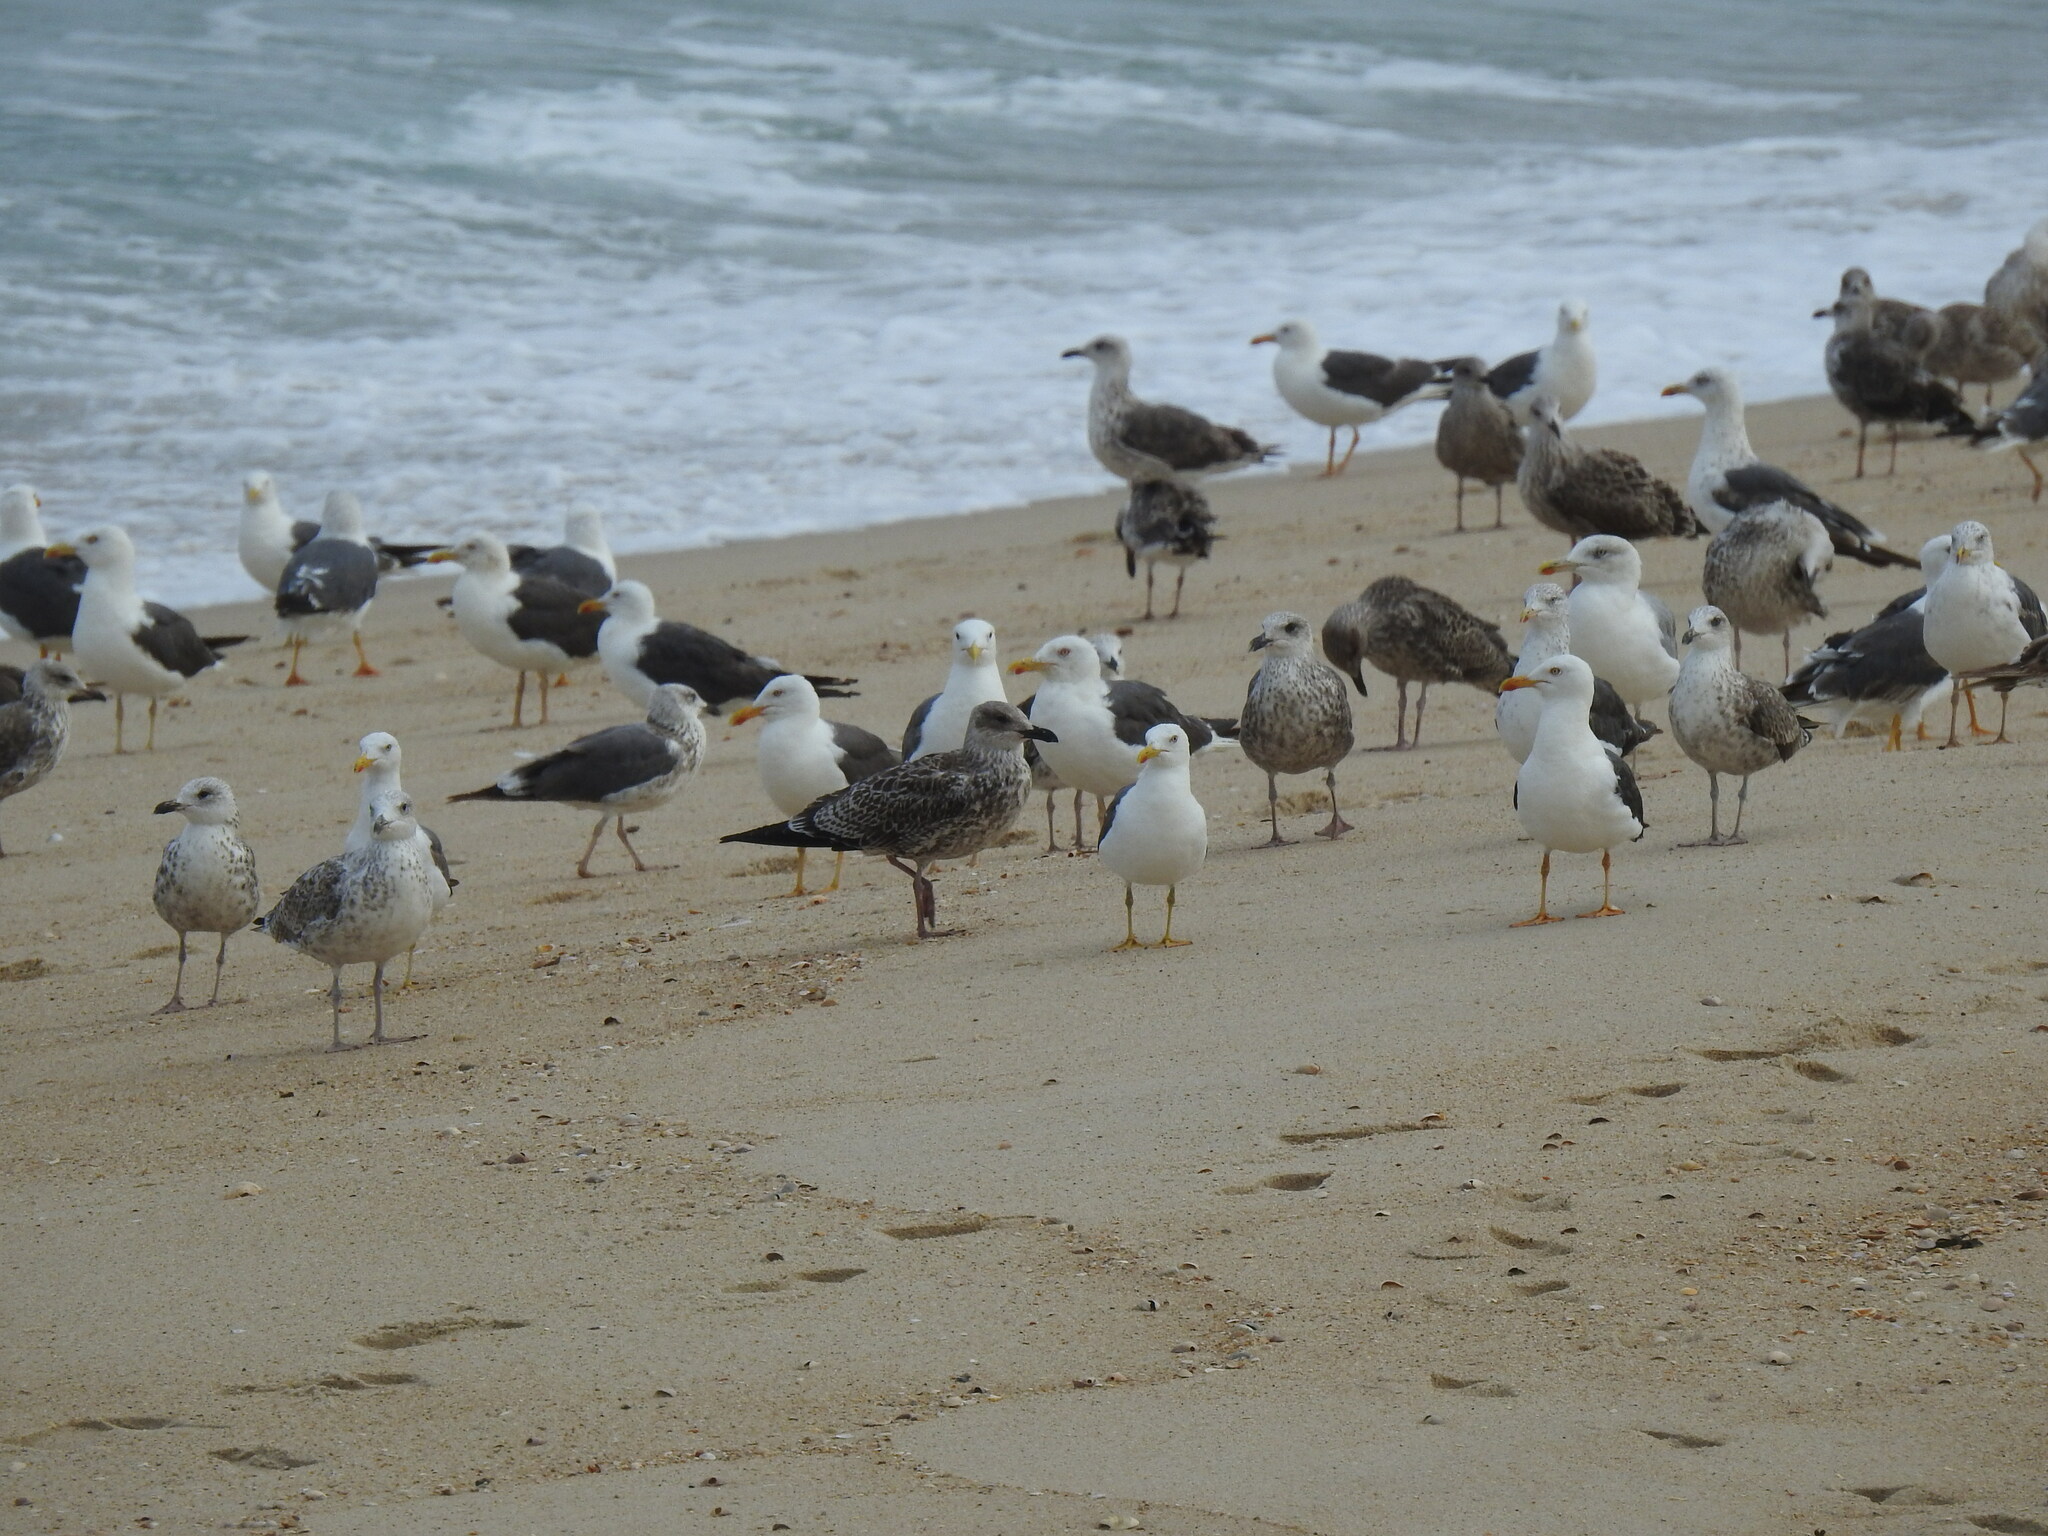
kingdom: Animalia
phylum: Chordata
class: Aves
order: Charadriiformes
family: Laridae
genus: Larus
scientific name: Larus fuscus
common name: Lesser black-backed gull
